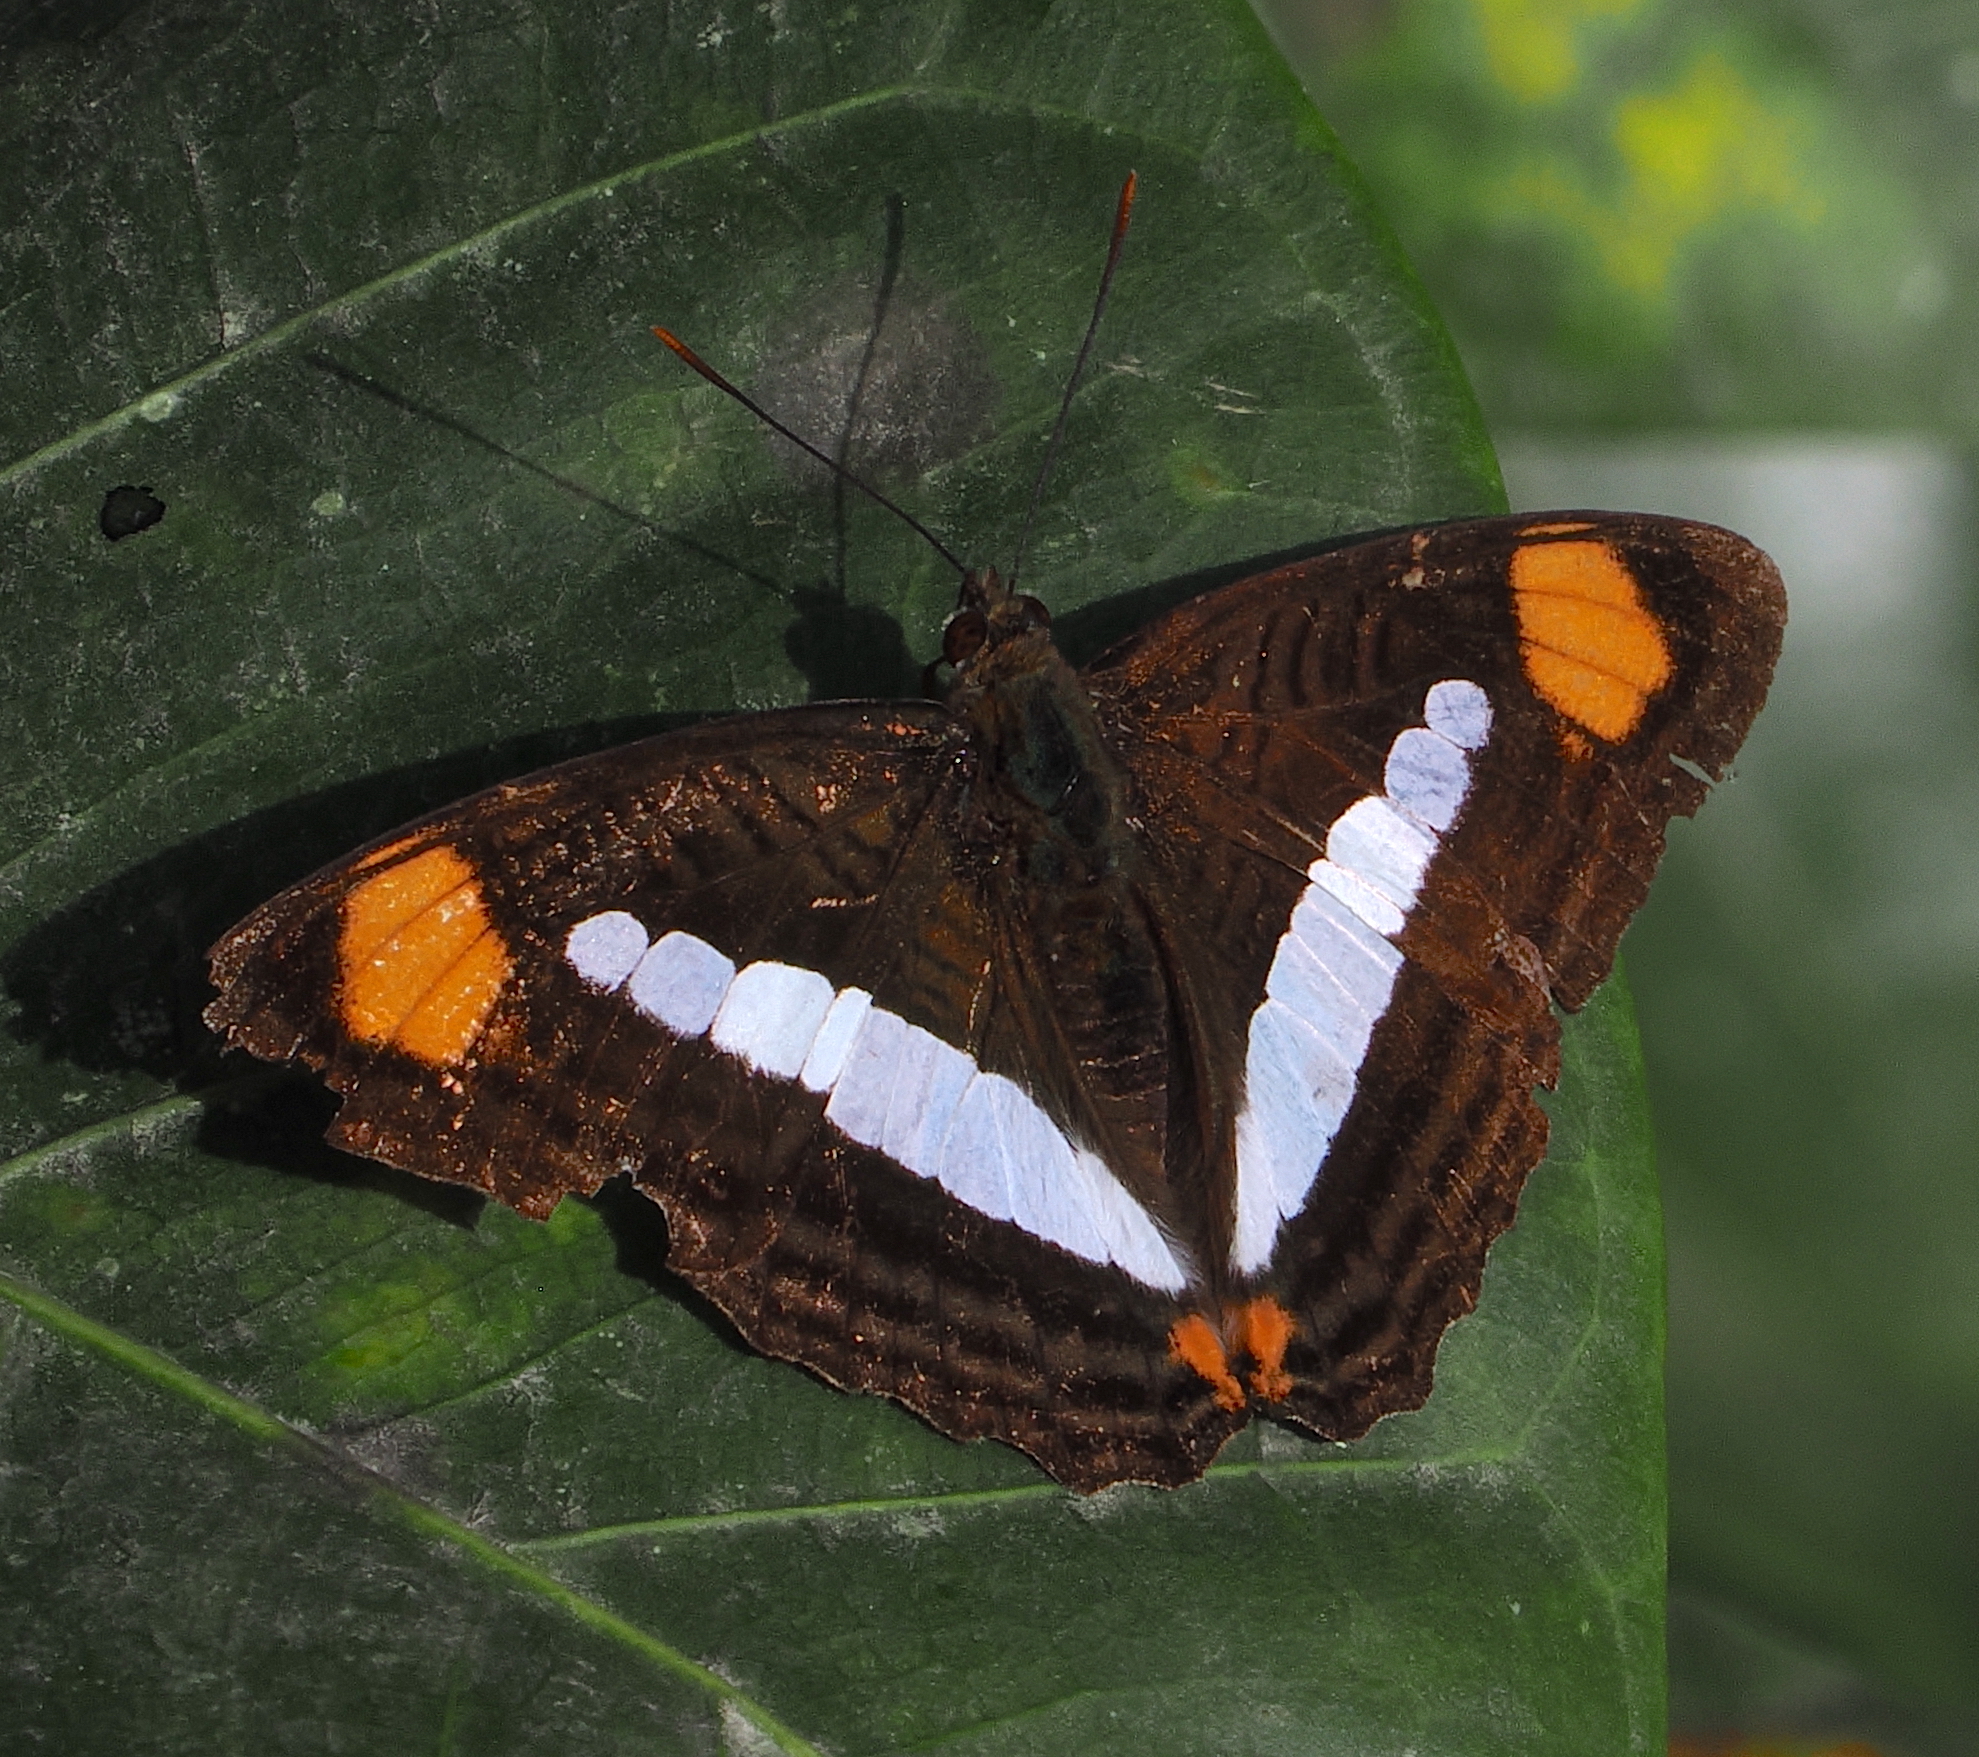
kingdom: Animalia
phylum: Arthropoda
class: Insecta
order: Lepidoptera
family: Nymphalidae
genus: Limenitis
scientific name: Limenitis thessalia
